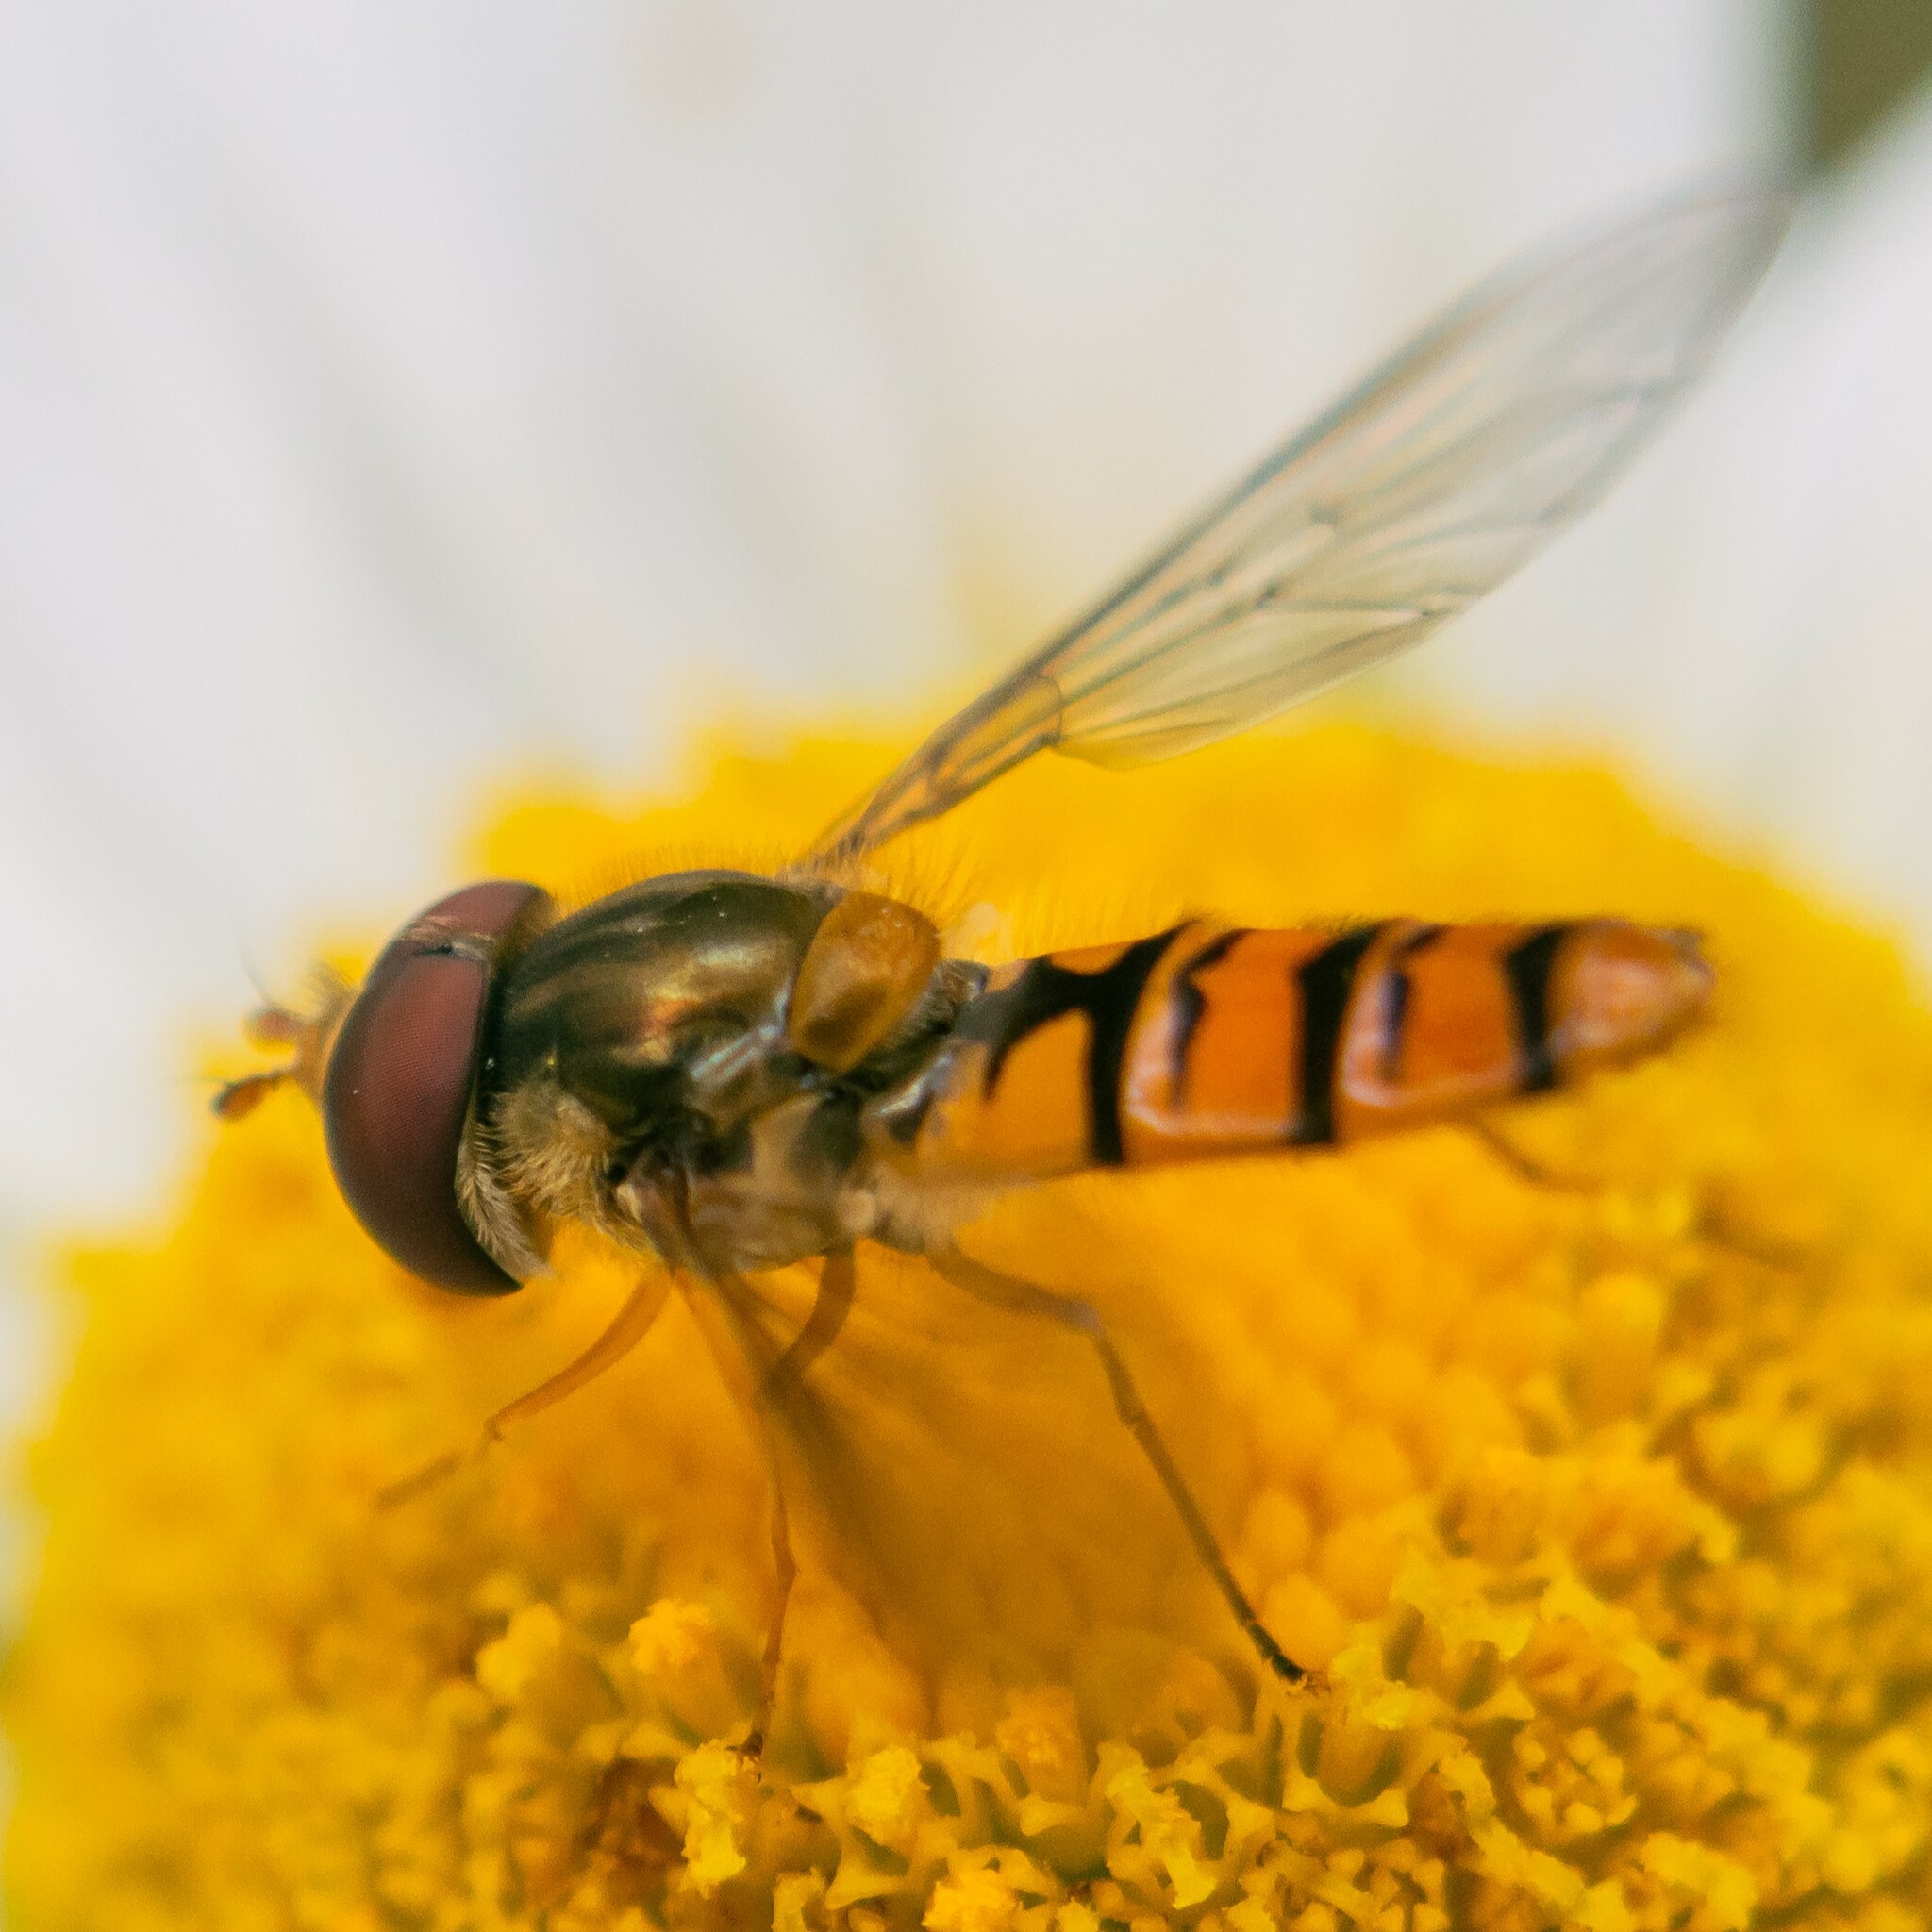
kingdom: Animalia
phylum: Arthropoda
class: Insecta
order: Diptera
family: Syrphidae
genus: Episyrphus
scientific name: Episyrphus balteatus
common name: Marmalade hoverfly
